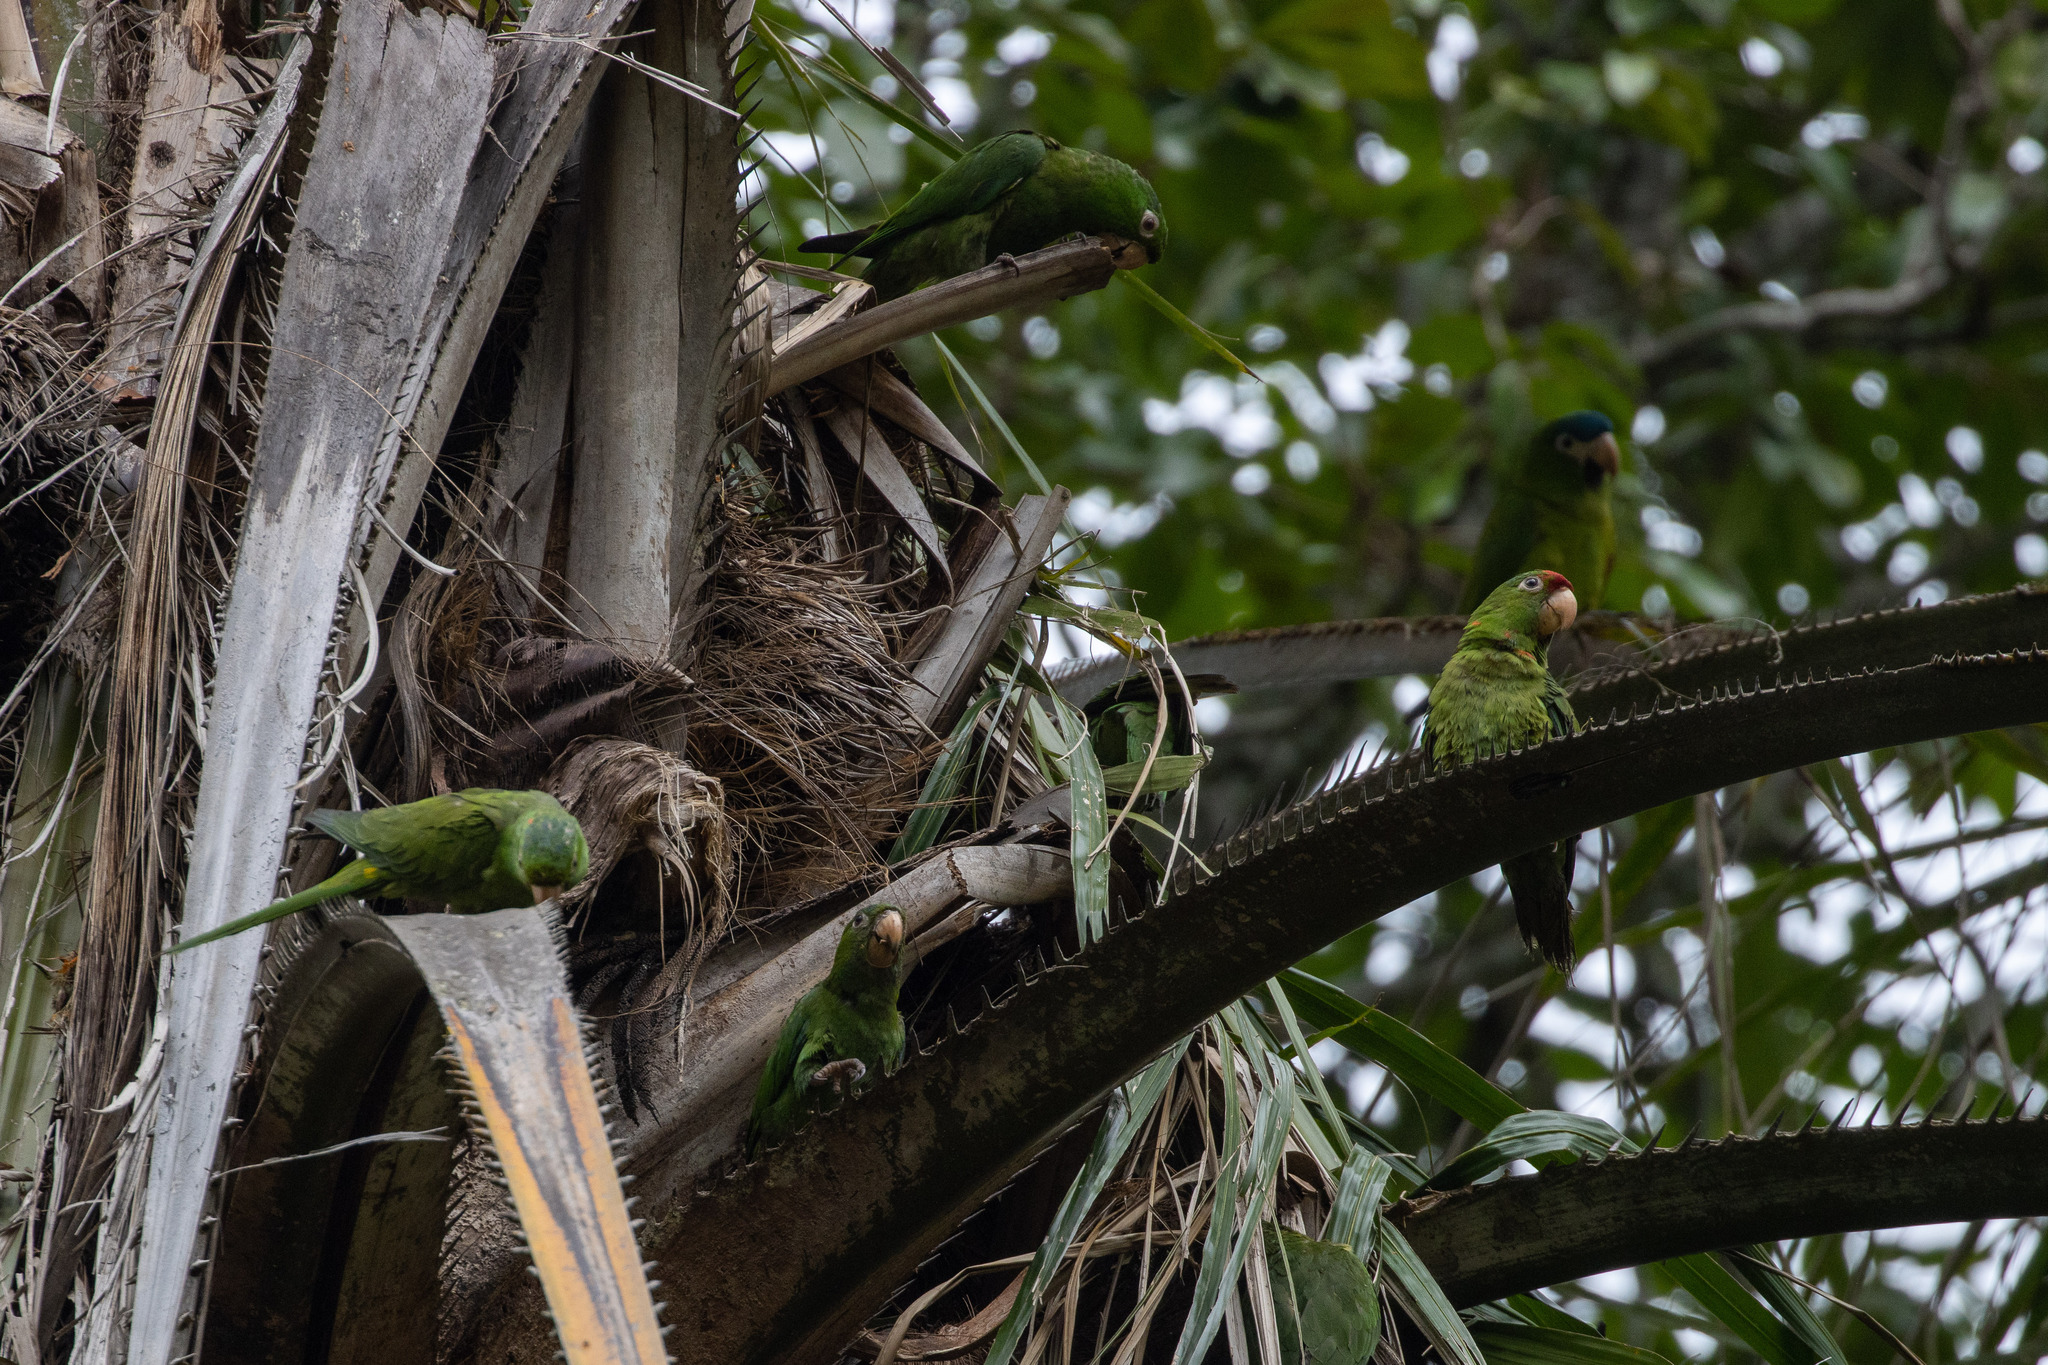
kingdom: Animalia
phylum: Chordata
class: Aves
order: Psittaciformes
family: Psittacidae
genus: Aratinga
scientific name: Aratinga leucophthalma
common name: White-eyed parakeet
